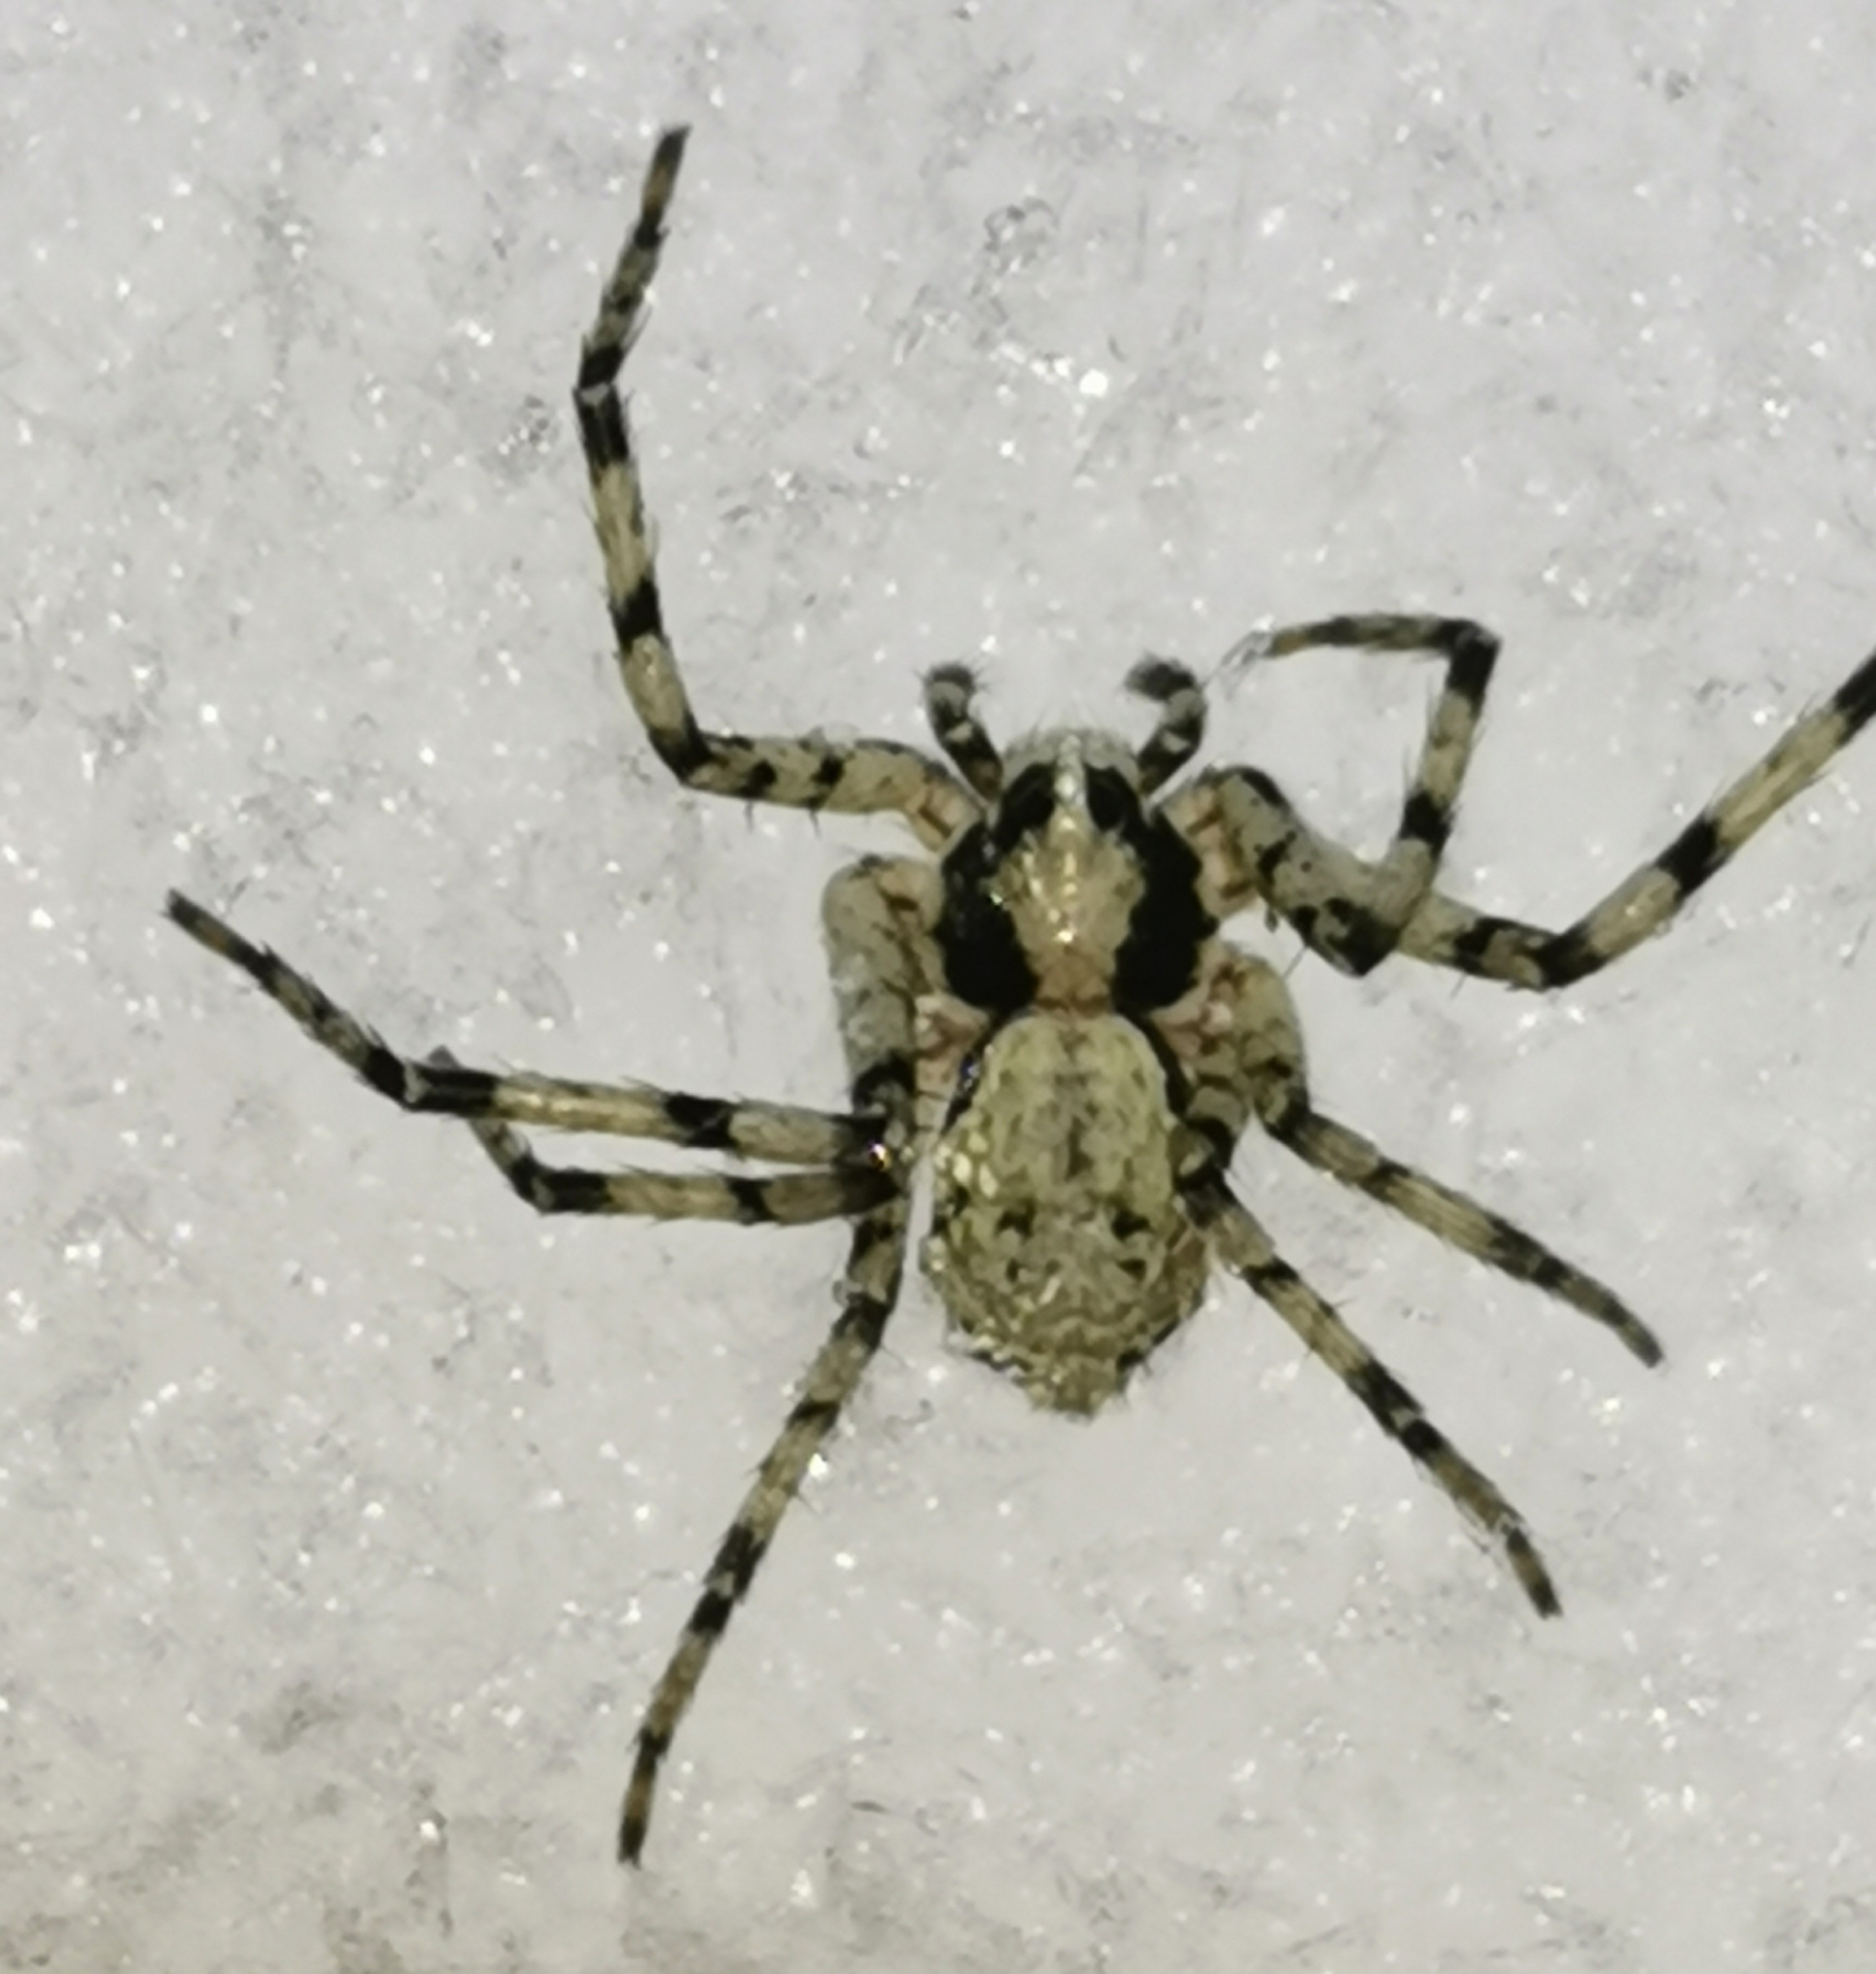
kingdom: Animalia
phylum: Arthropoda
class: Arachnida
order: Araneae
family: Philodromidae
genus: Philodromus
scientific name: Philodromus margaritatus
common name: Lichen running-spider
